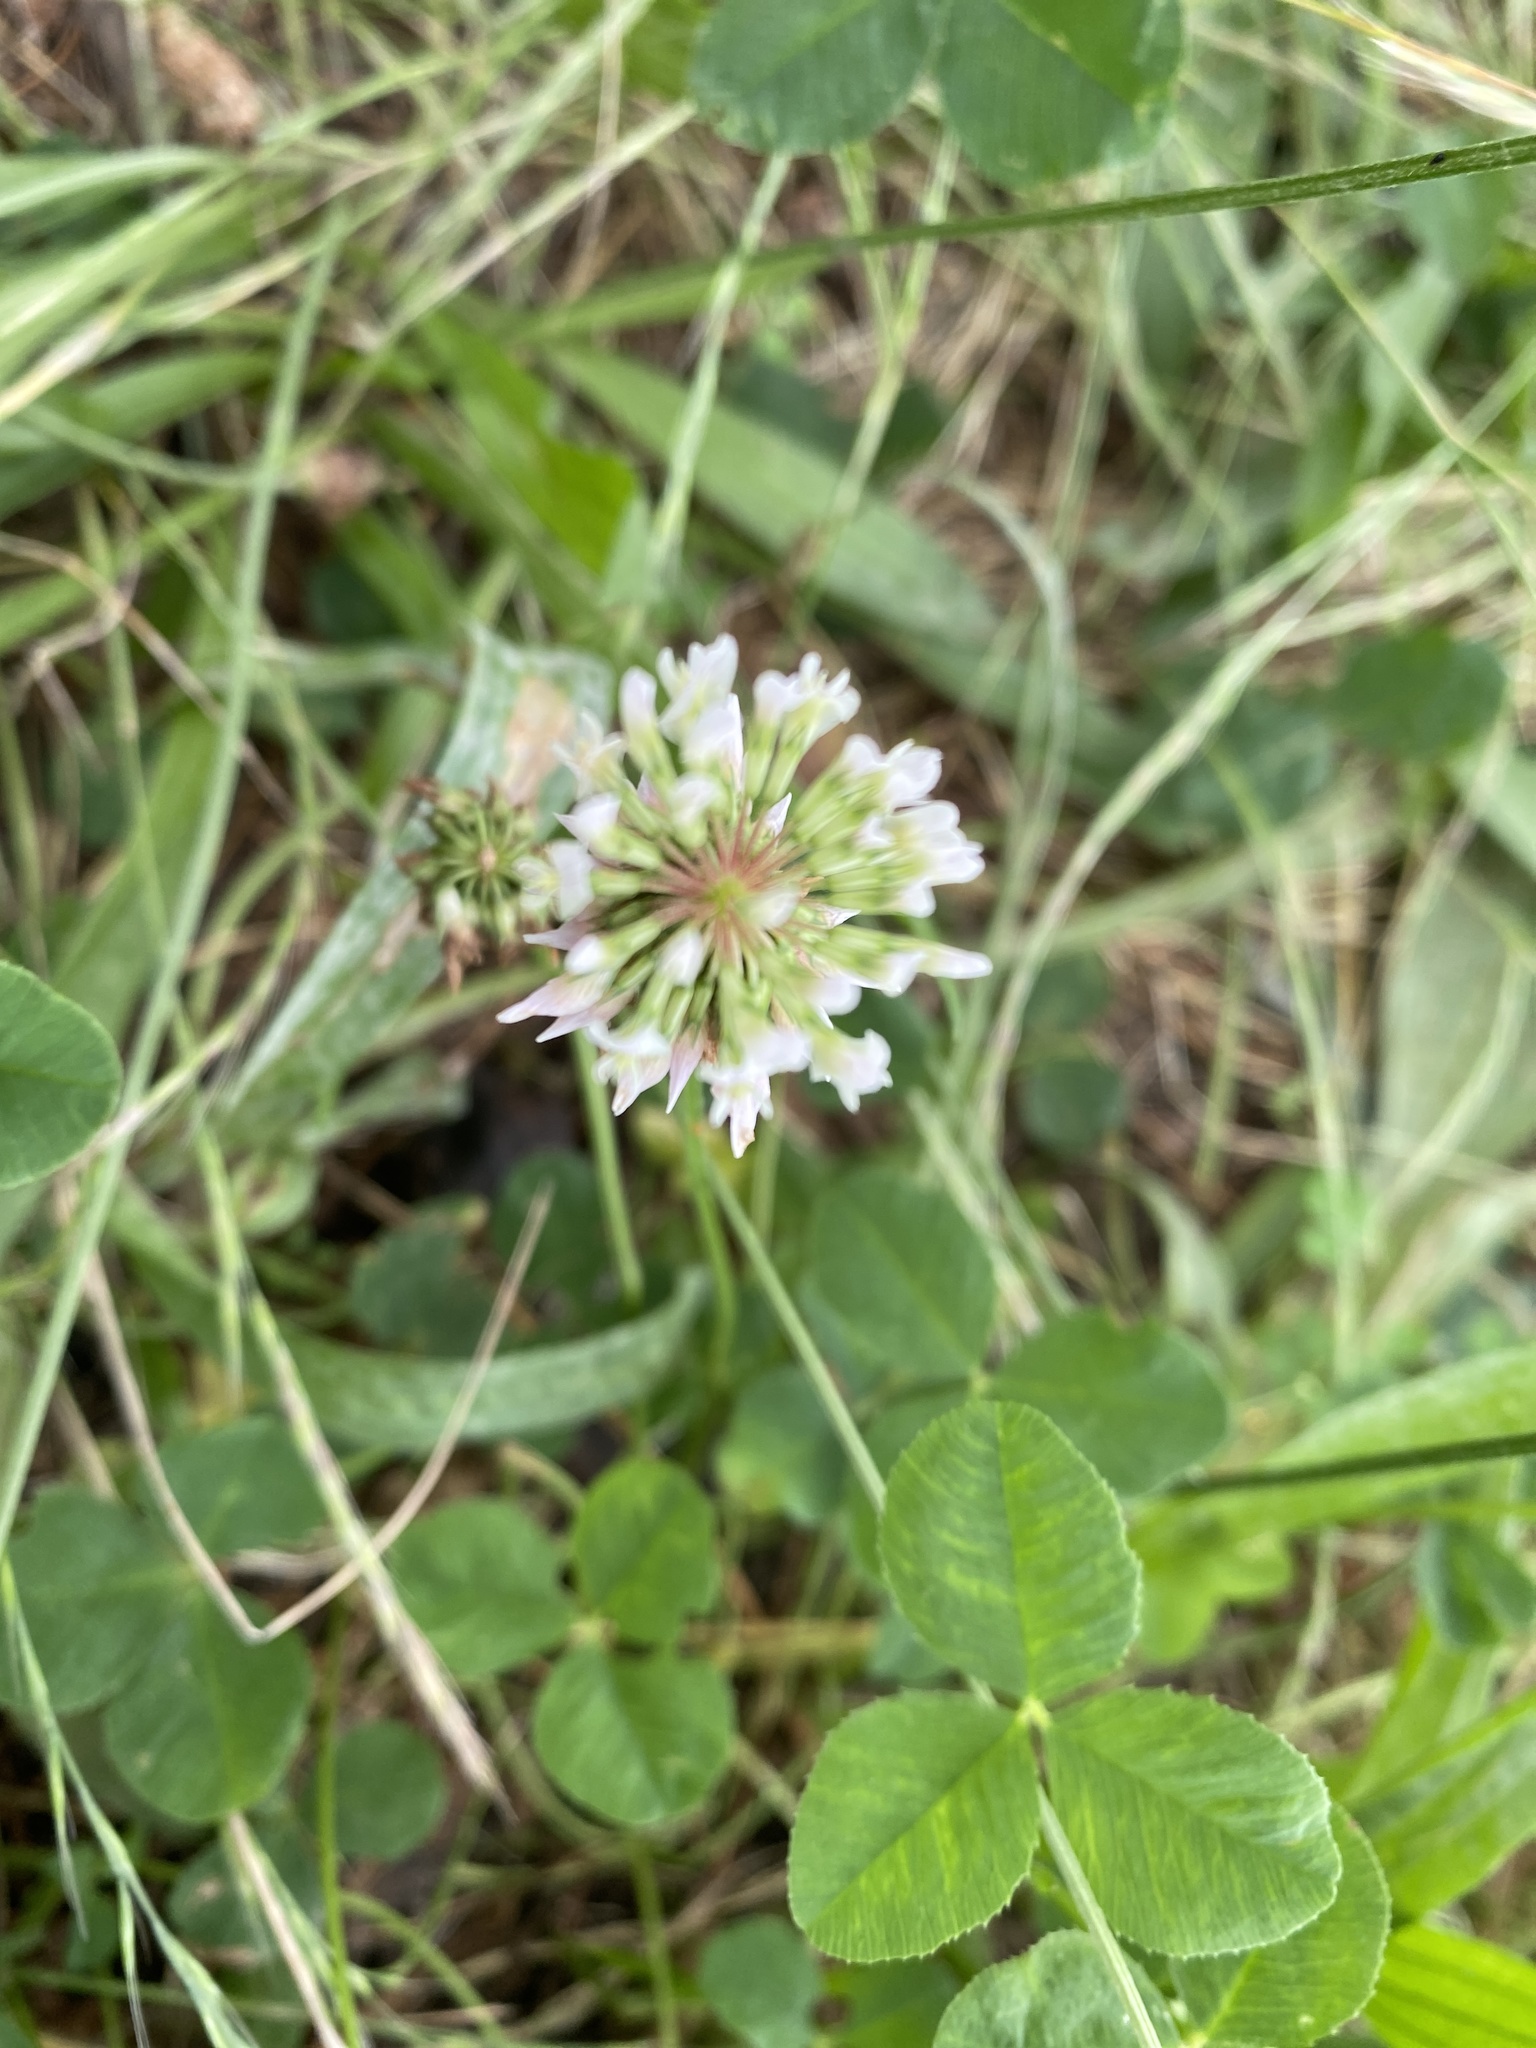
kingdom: Plantae
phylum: Tracheophyta
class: Magnoliopsida
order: Fabales
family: Fabaceae
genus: Trifolium
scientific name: Trifolium repens
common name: White clover
